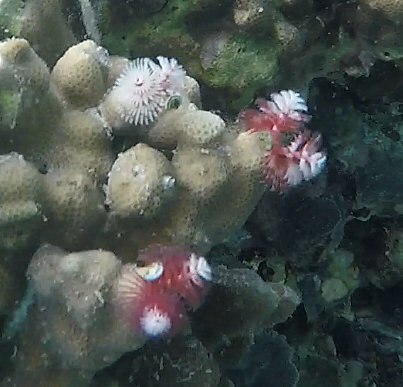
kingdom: Animalia
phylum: Annelida
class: Polychaeta
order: Sabellida
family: Serpulidae
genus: Spirobranchus
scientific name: Spirobranchus
